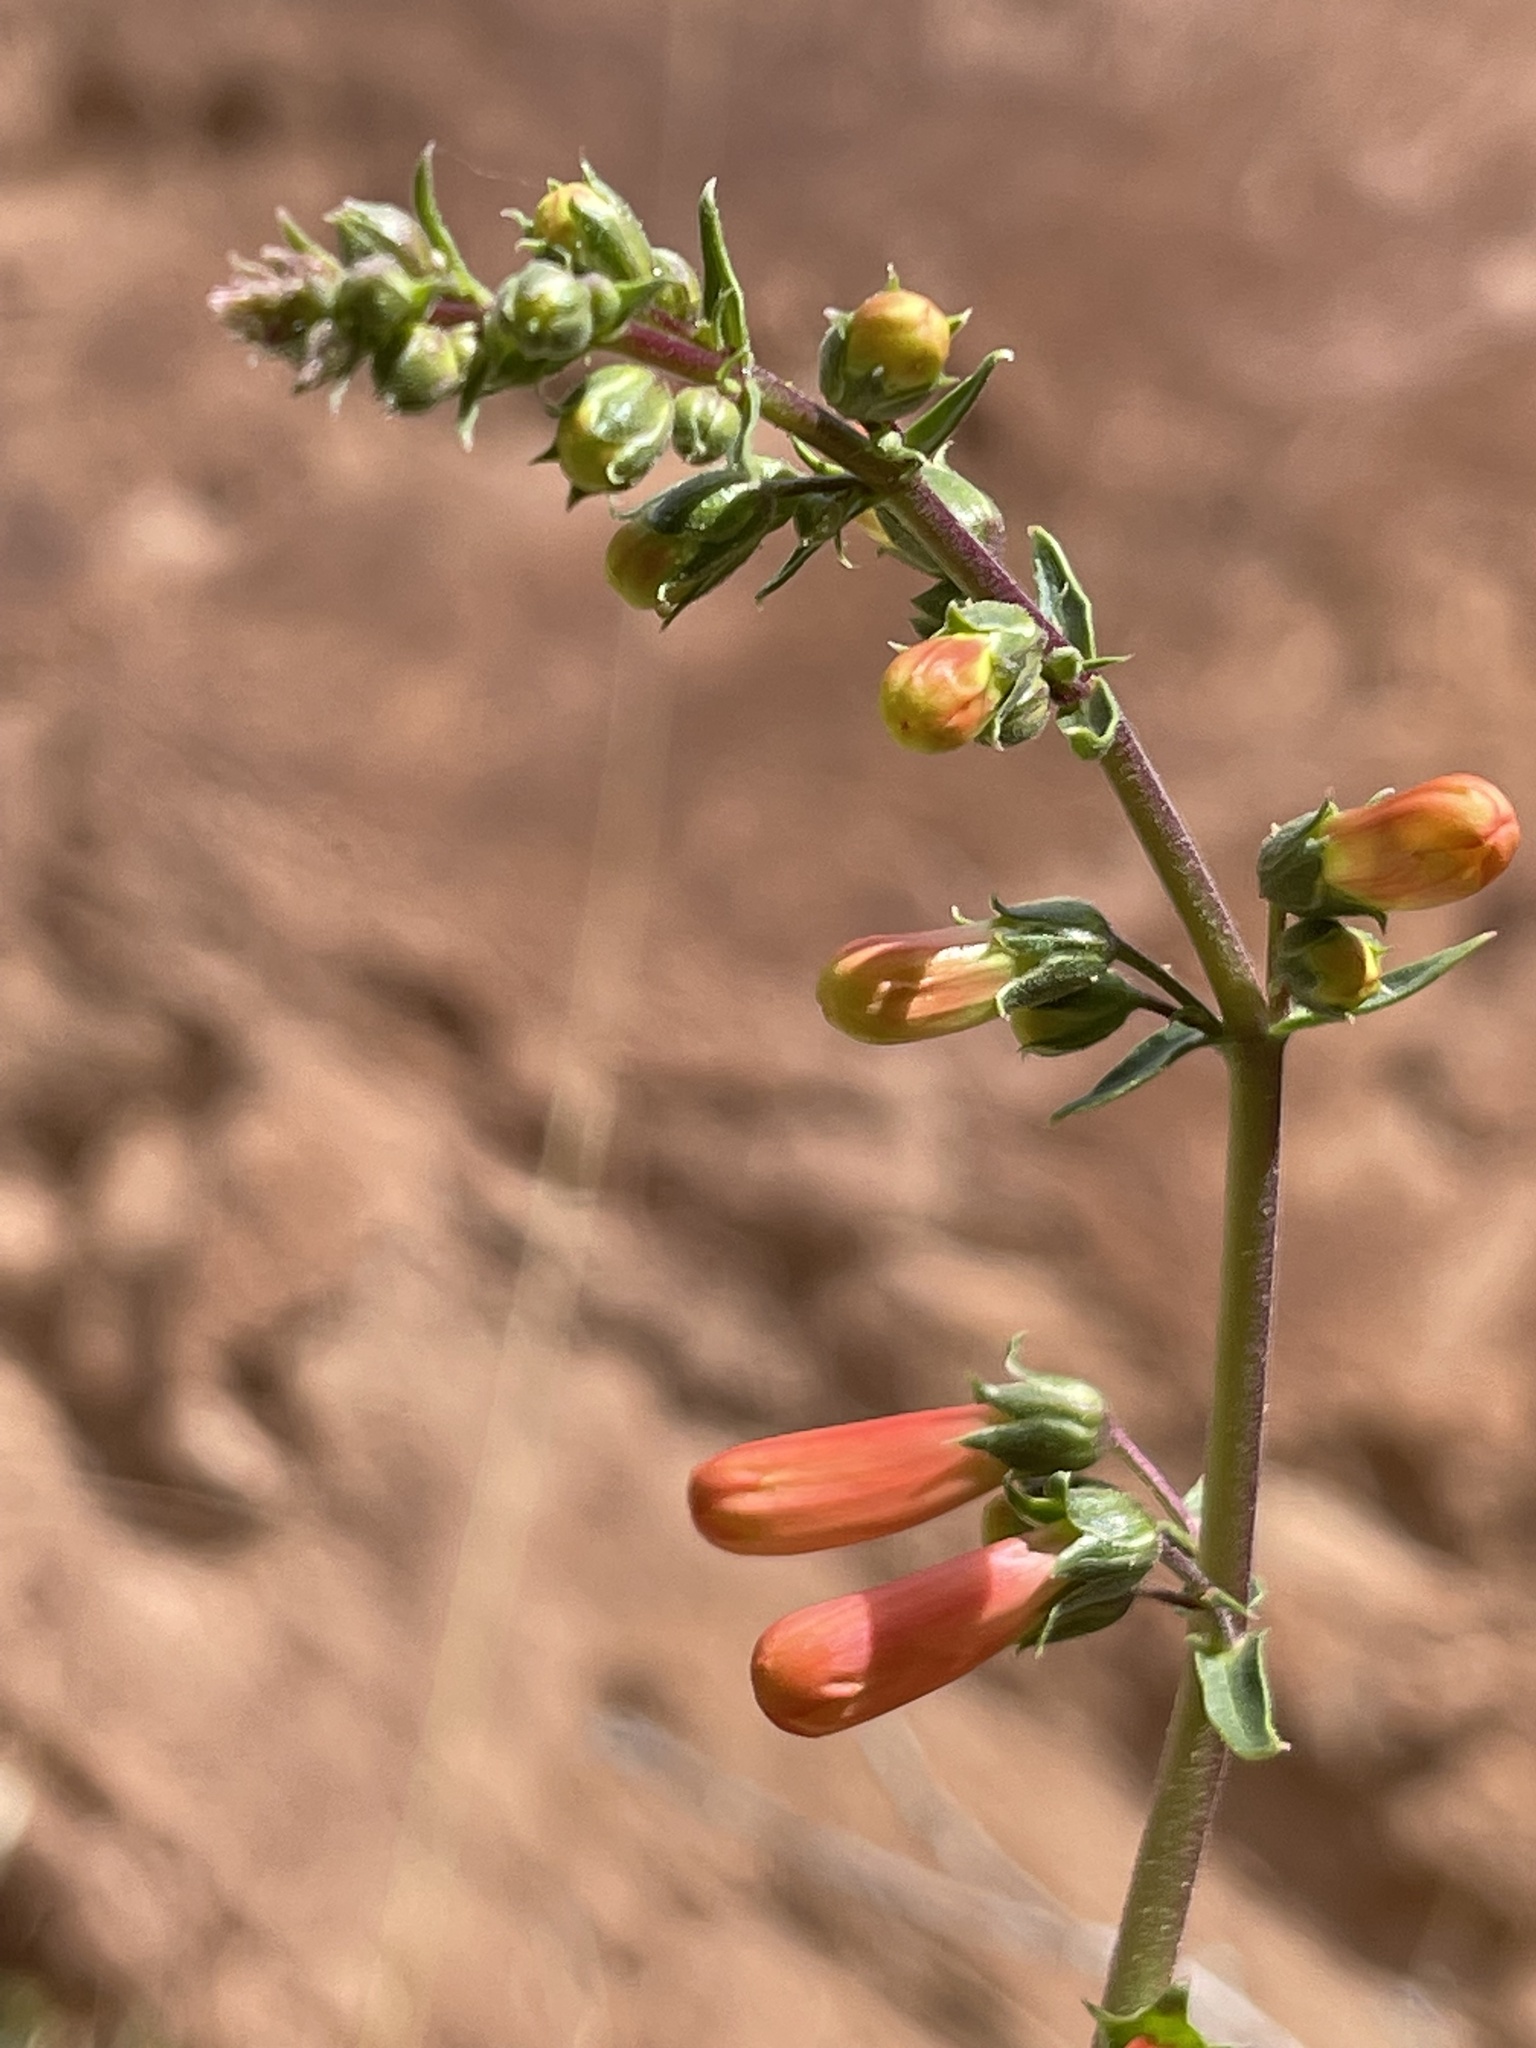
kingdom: Plantae
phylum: Tracheophyta
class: Magnoliopsida
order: Lamiales
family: Plantaginaceae
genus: Penstemon
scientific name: Penstemon eatonii
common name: Eaton's penstemon
